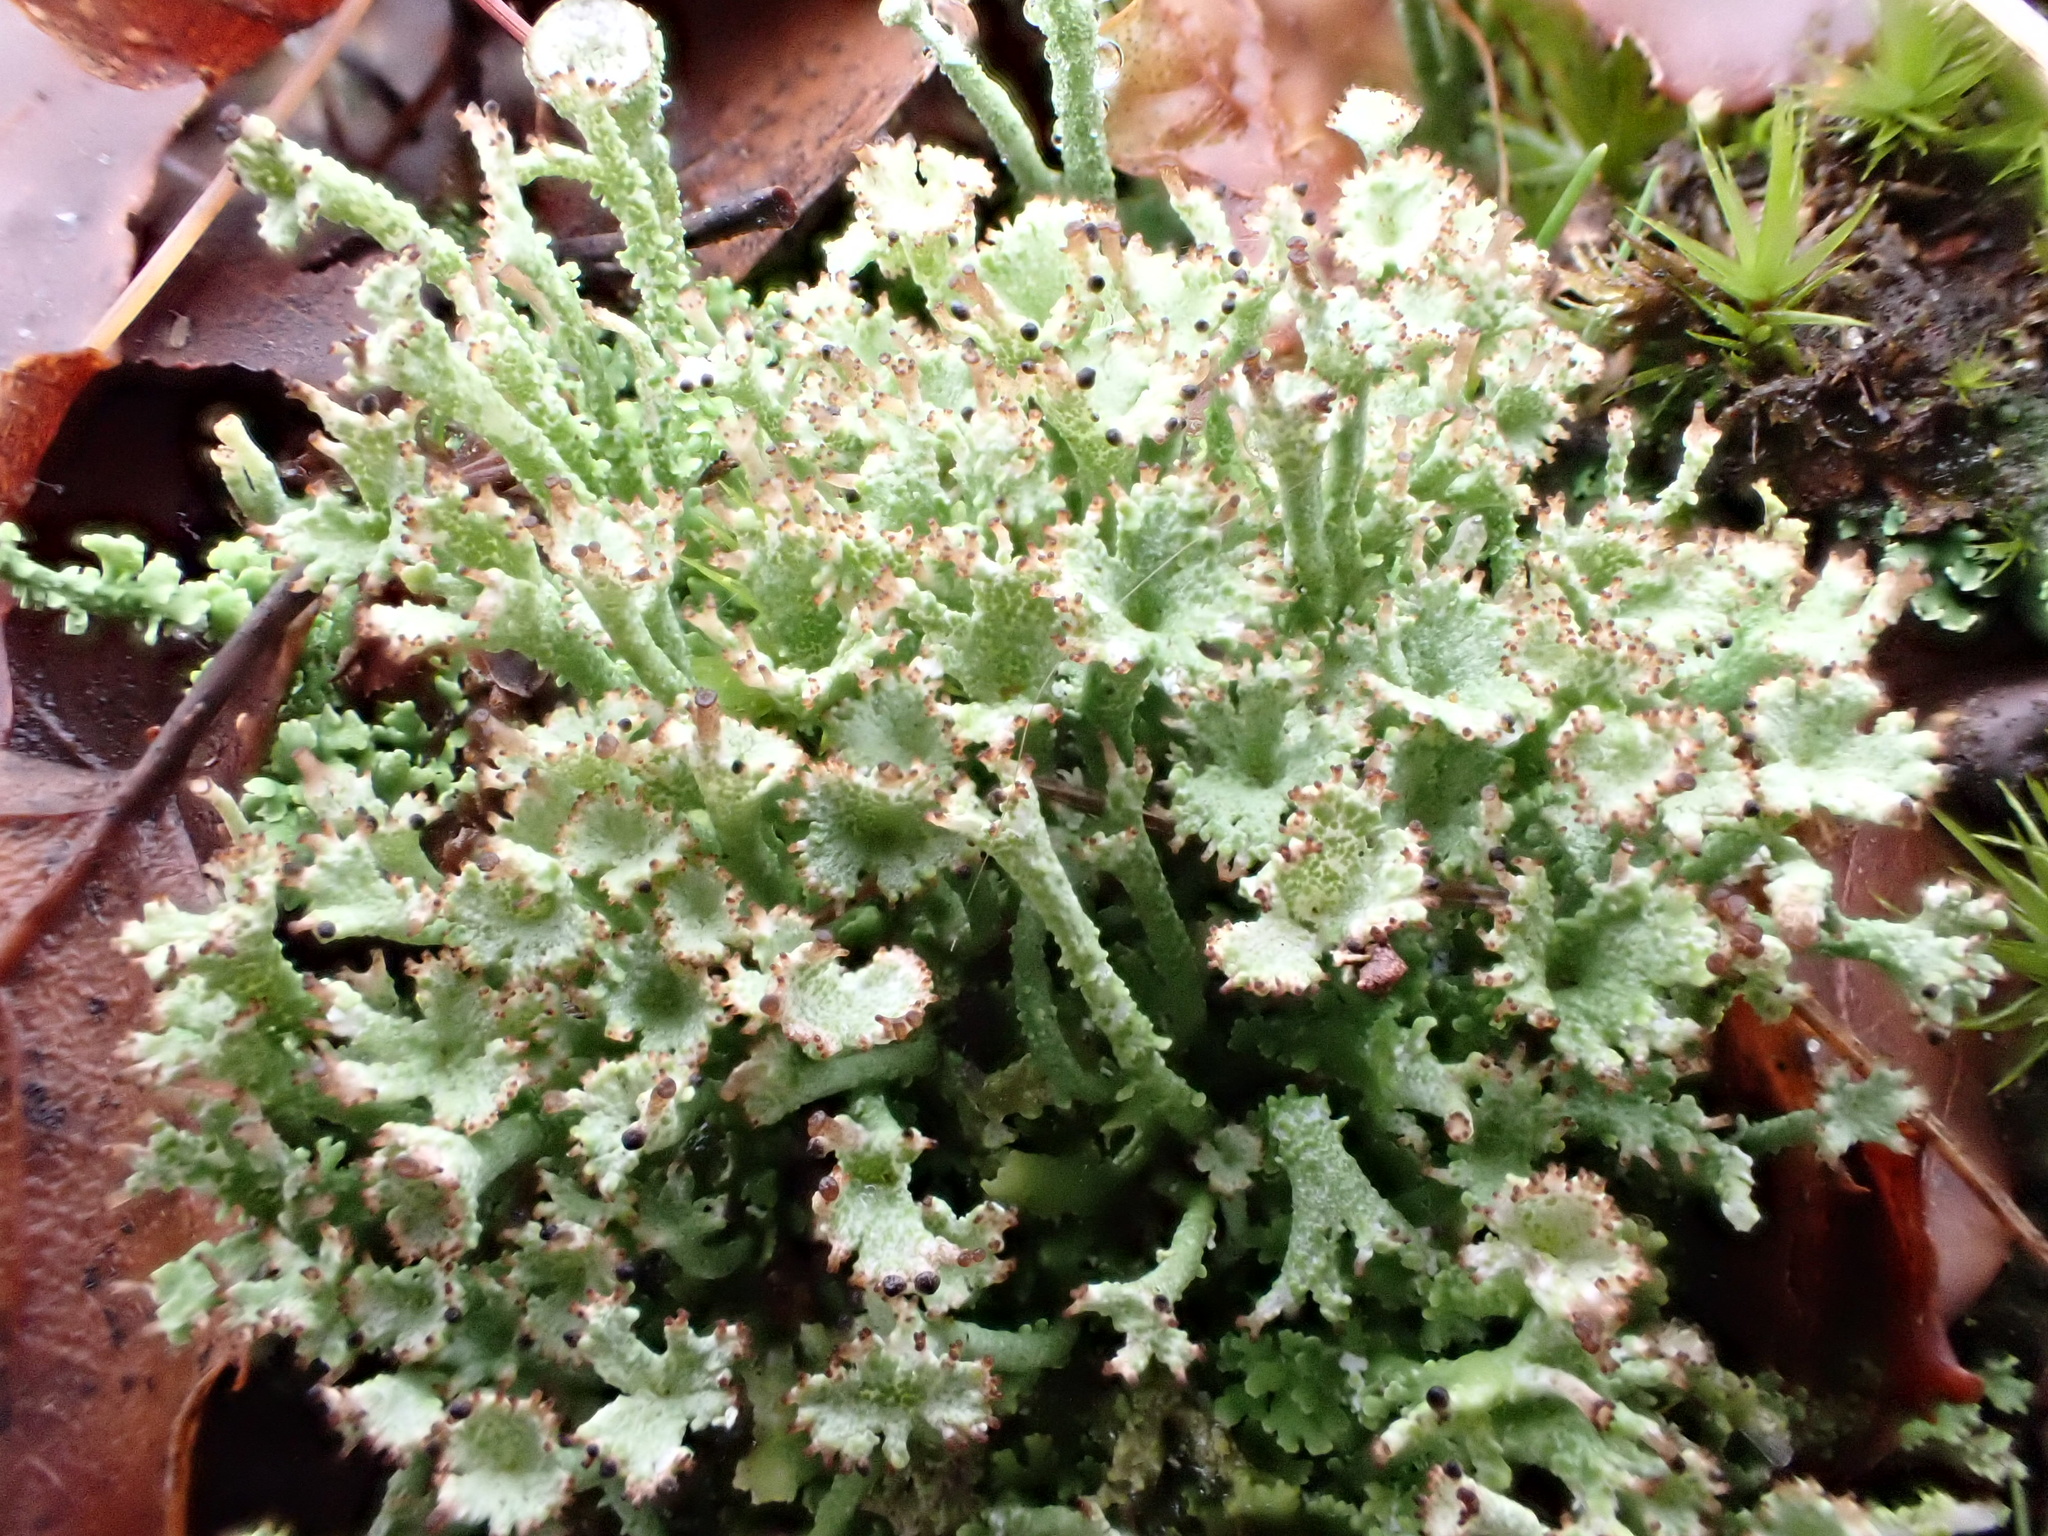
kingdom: Fungi
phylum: Ascomycota
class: Lecanoromycetes
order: Lecanorales
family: Cladoniaceae
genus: Cladonia
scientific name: Cladonia ramulosa
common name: Branched pixie-cup lichen
